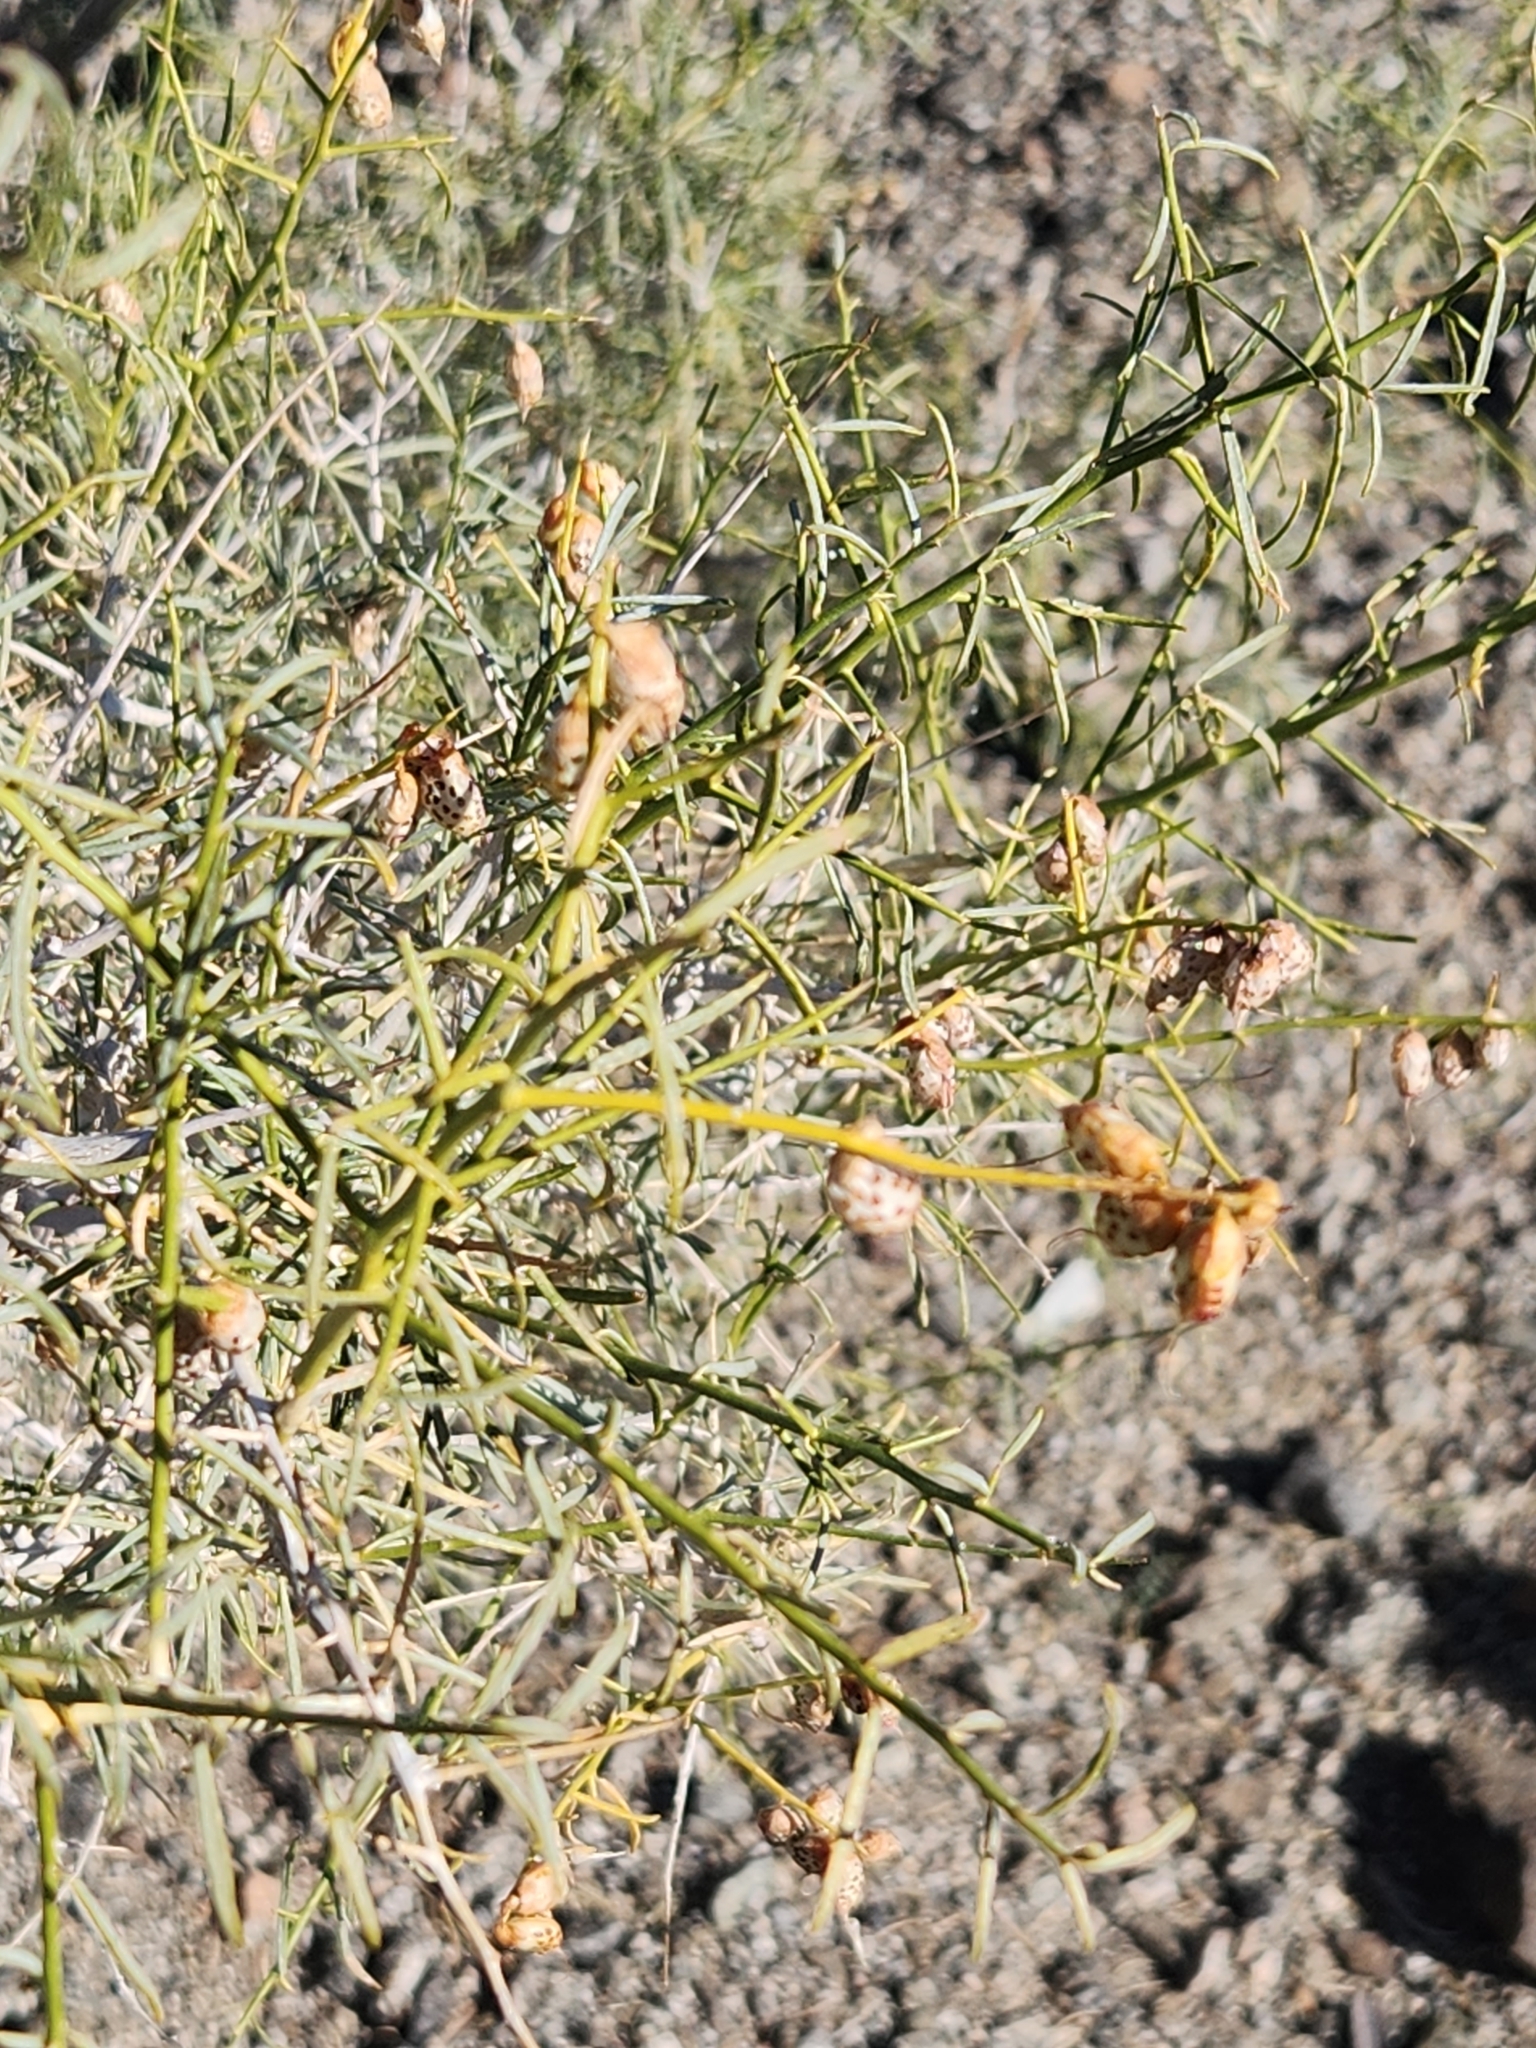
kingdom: Plantae
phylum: Tracheophyta
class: Magnoliopsida
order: Fabales
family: Fabaceae
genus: Psorothamnus
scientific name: Psorothamnus schottii
